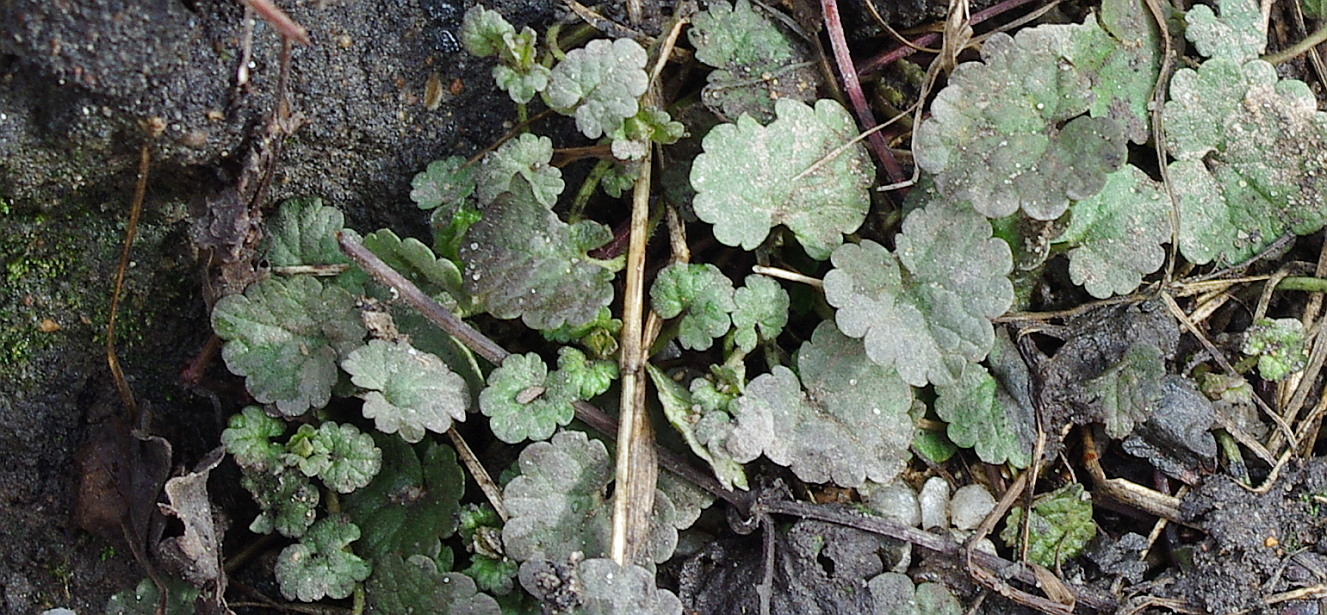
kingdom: Plantae
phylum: Tracheophyta
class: Magnoliopsida
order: Lamiales
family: Lamiaceae
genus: Glechoma
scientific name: Glechoma hederacea
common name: Ground ivy
